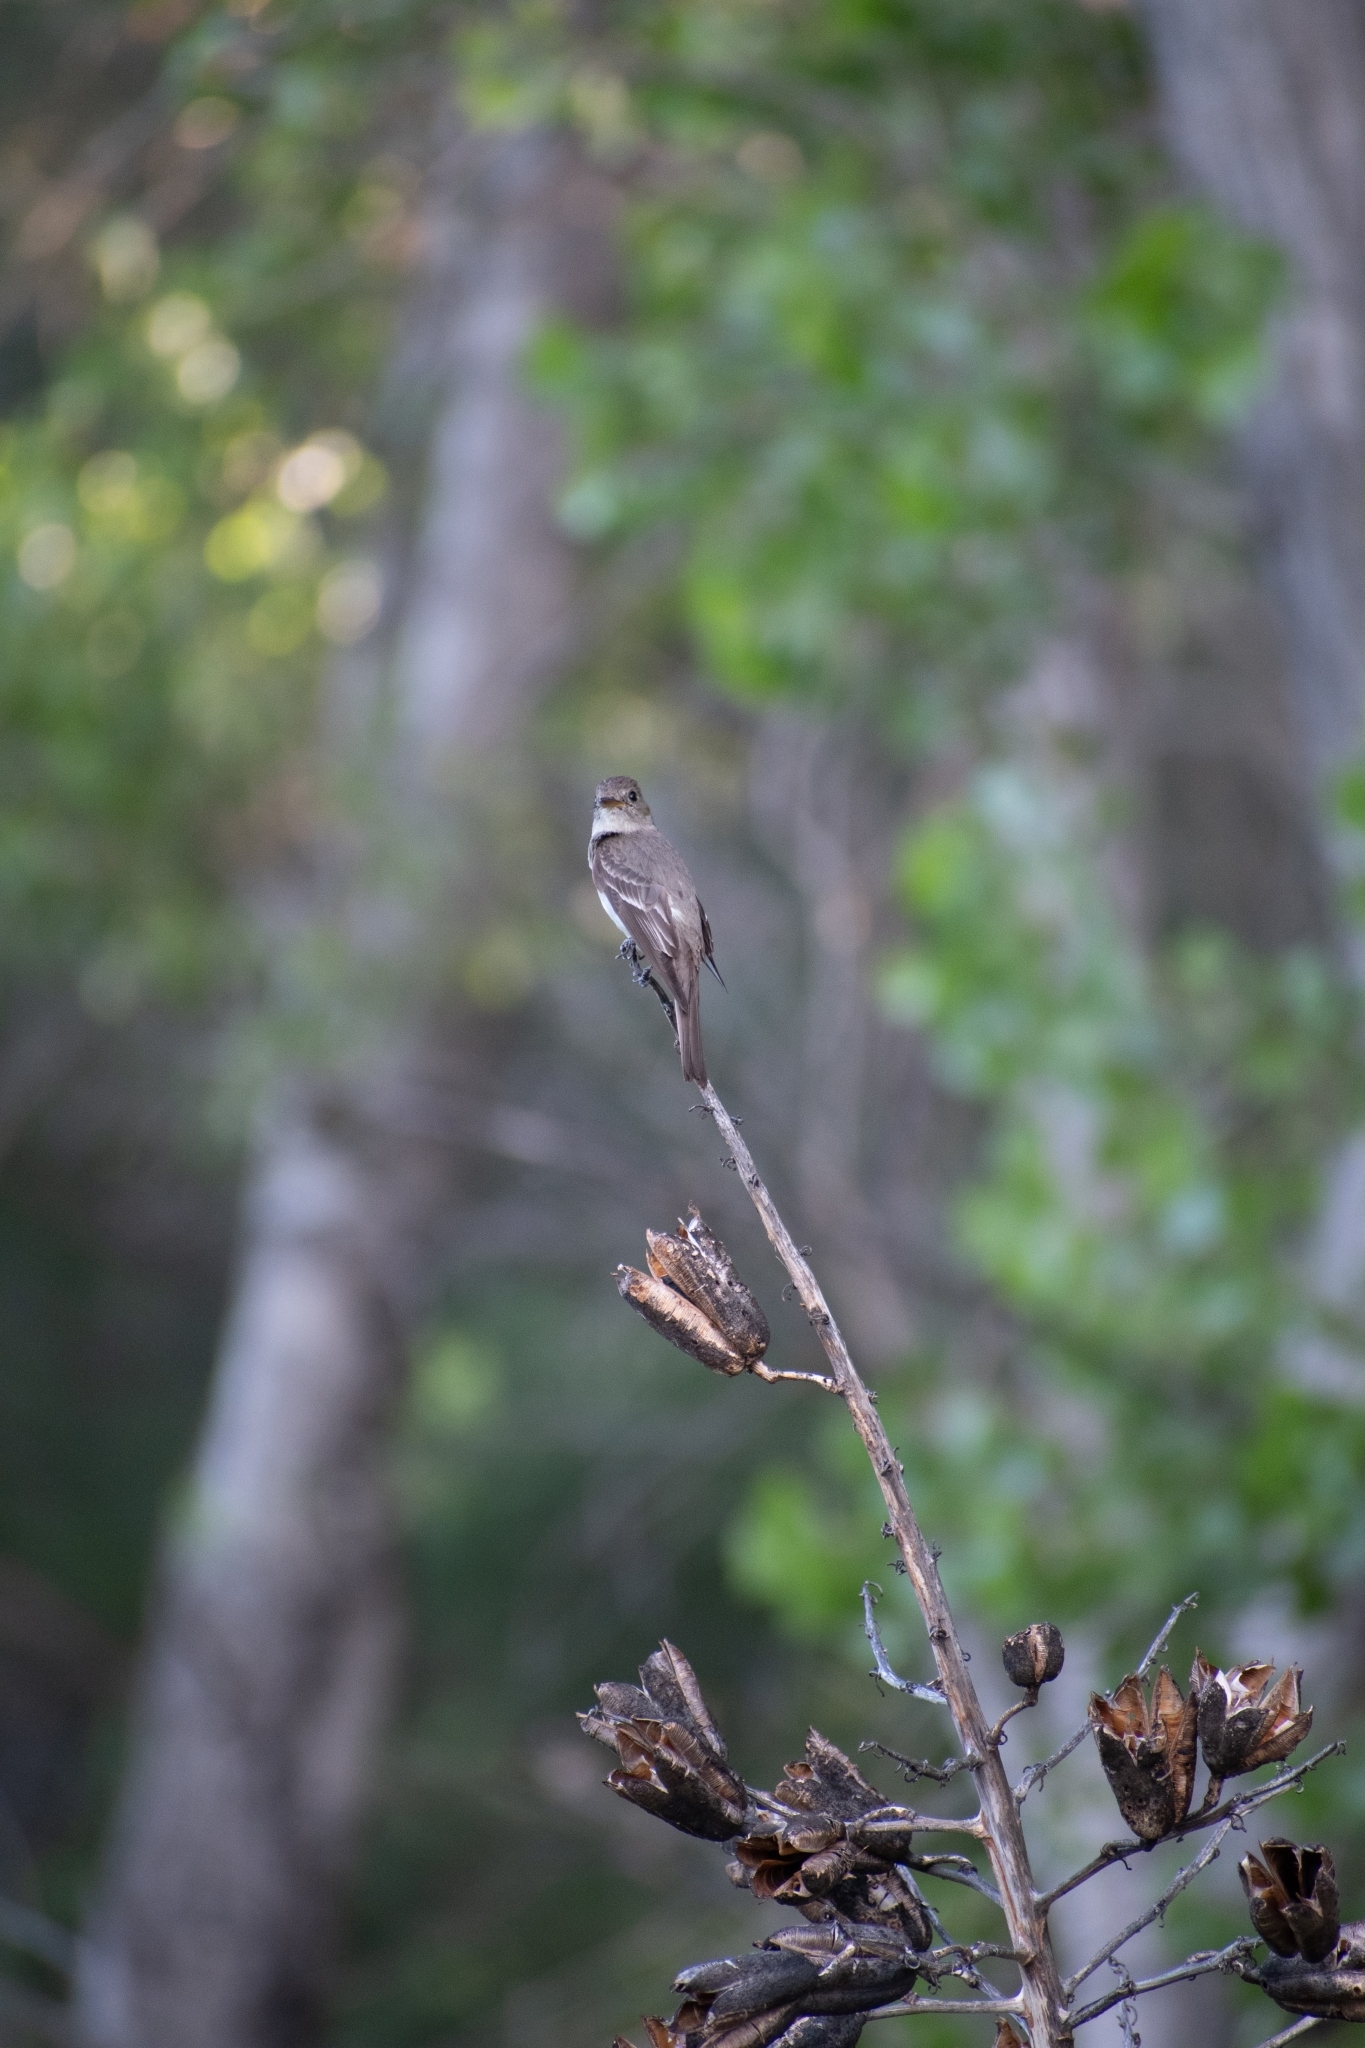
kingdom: Animalia
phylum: Chordata
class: Aves
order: Passeriformes
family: Tyrannidae
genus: Contopus
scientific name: Contopus sordidulus
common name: Western wood-pewee
